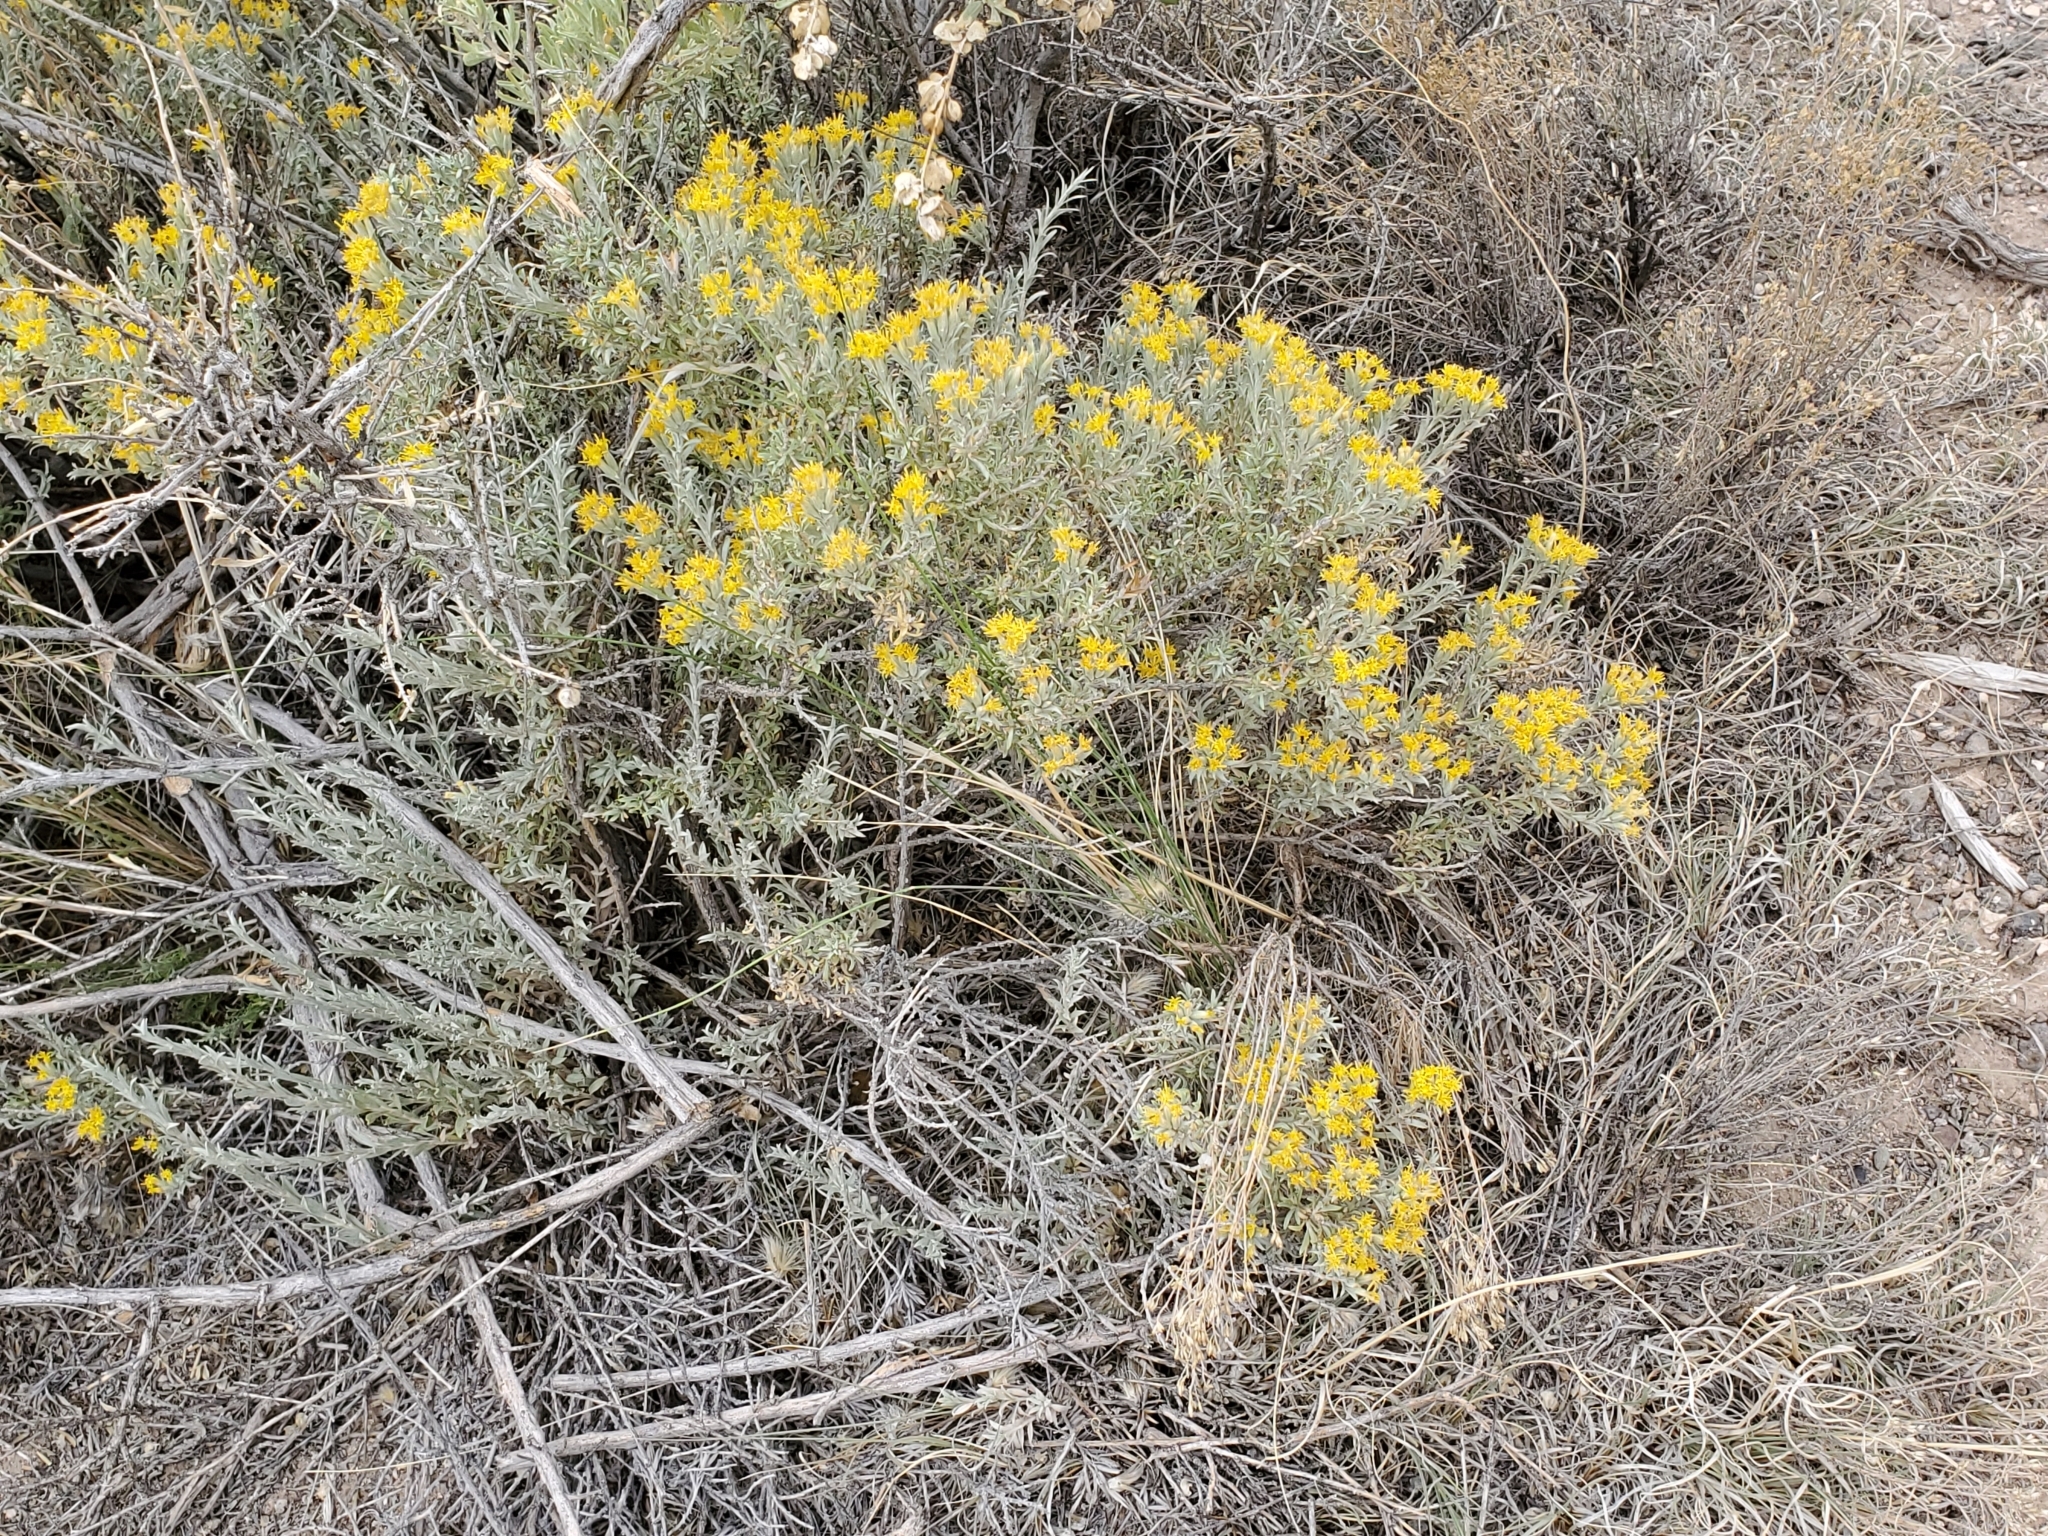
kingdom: Plantae
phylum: Tracheophyta
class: Magnoliopsida
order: Asterales
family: Asteraceae
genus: Tetradymia
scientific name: Tetradymia canescens
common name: Spineless horsebrush
